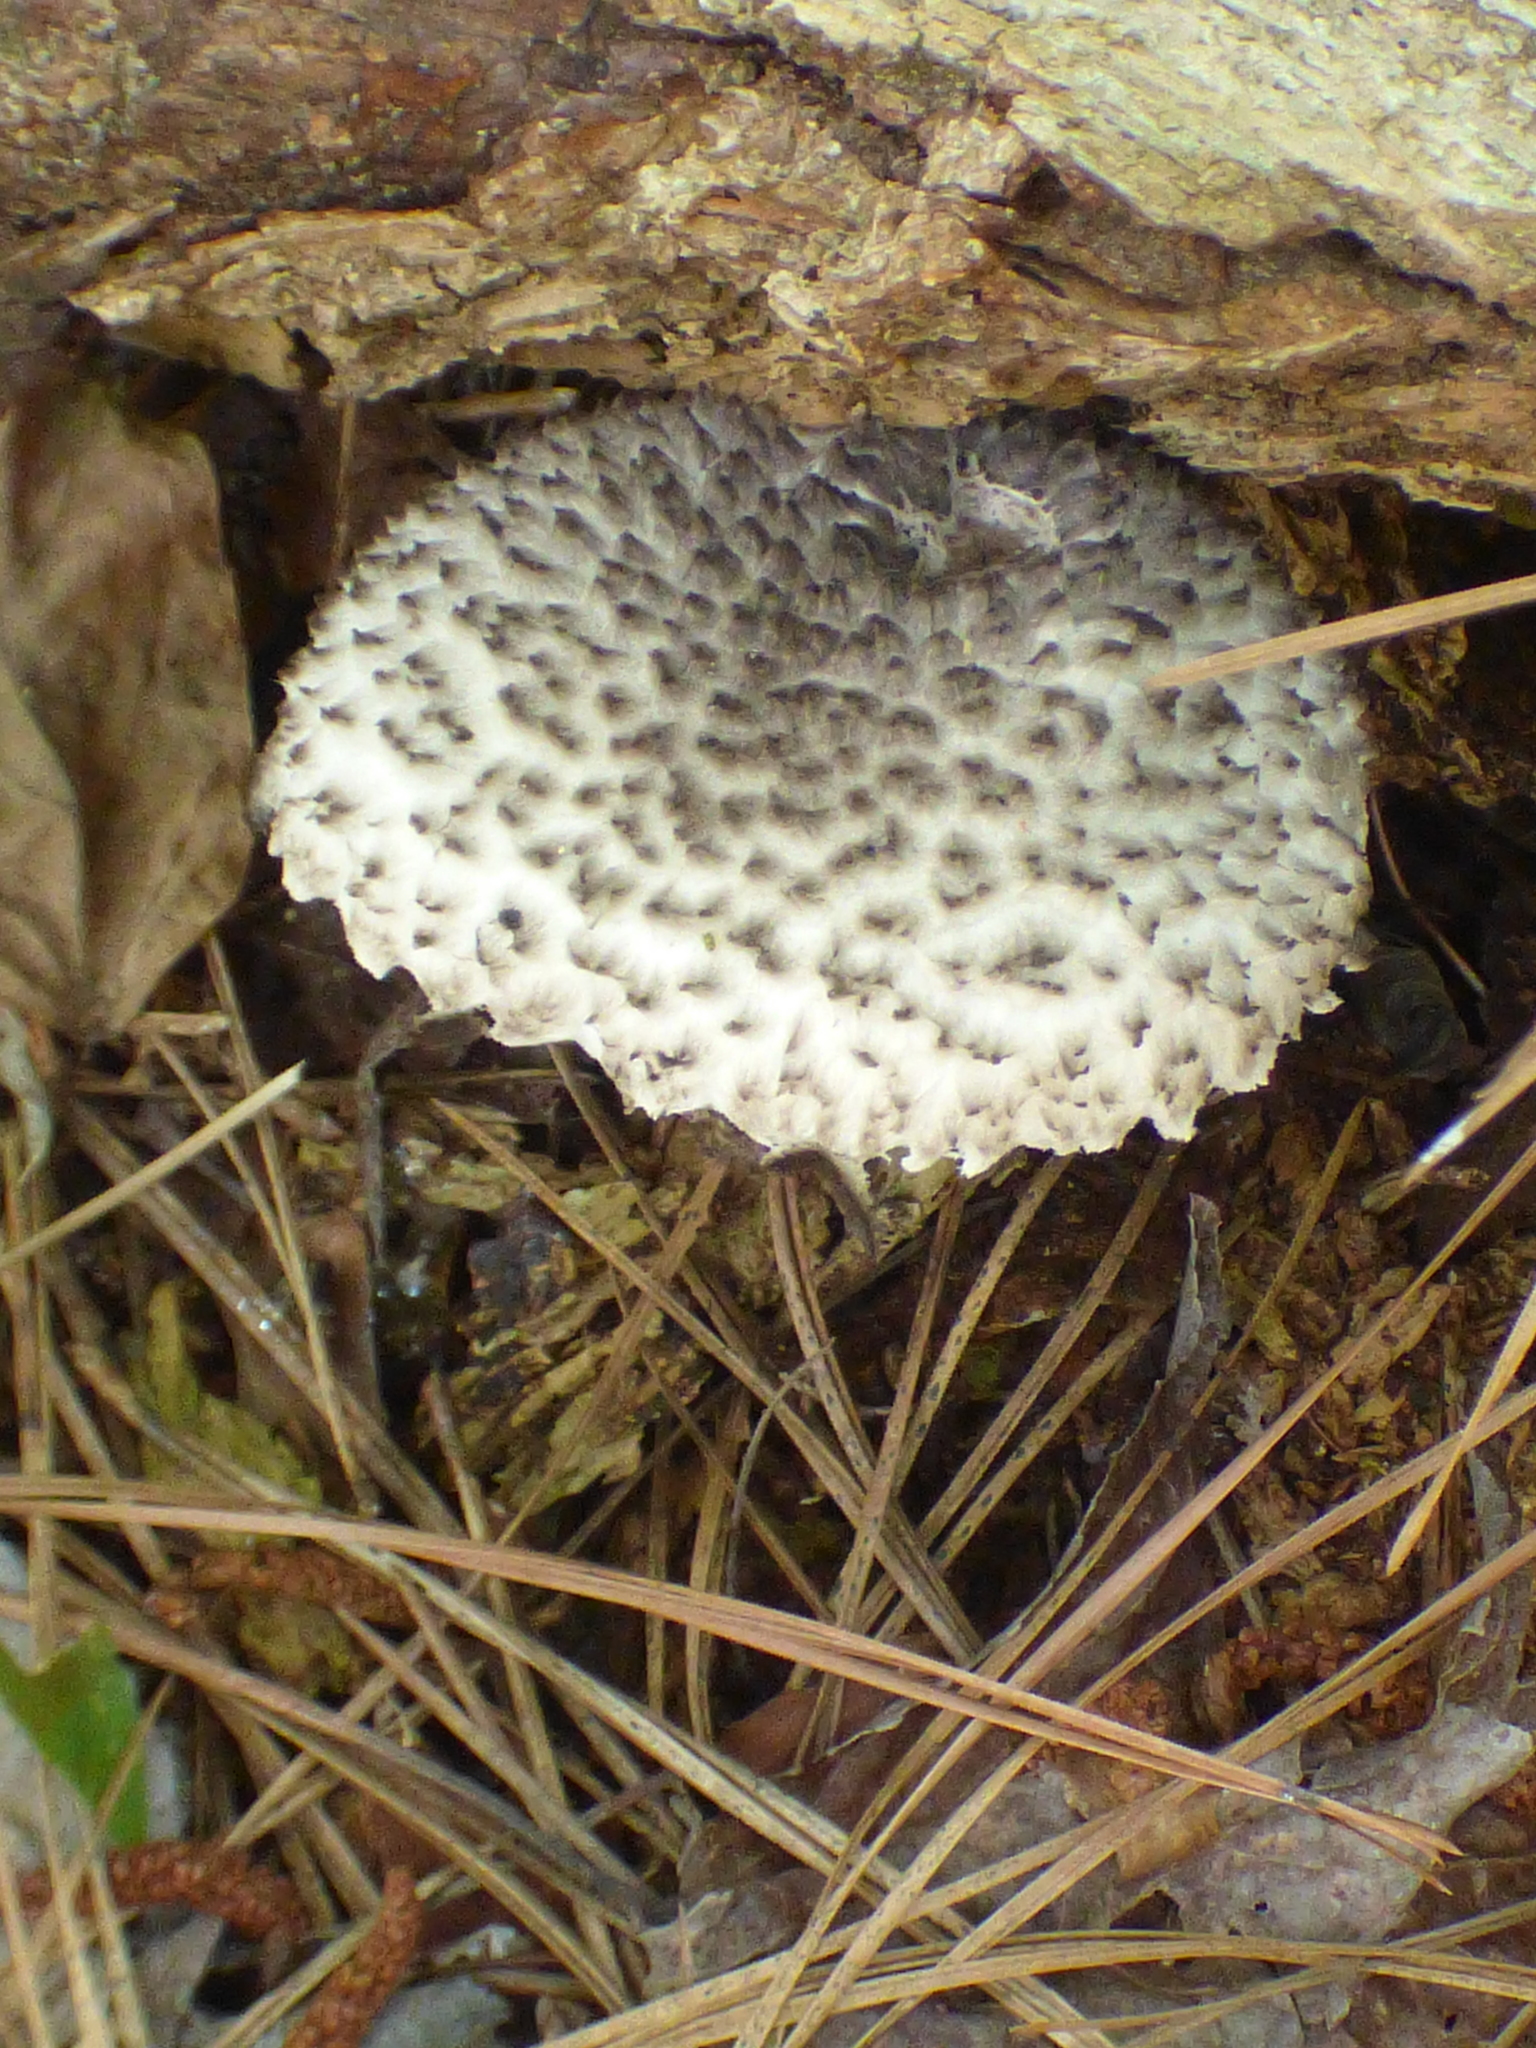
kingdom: Fungi
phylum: Basidiomycota
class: Agaricomycetes
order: Boletales
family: Boletaceae
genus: Strobilomyces
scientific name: Strobilomyces strobilaceus
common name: Old man of the woods
